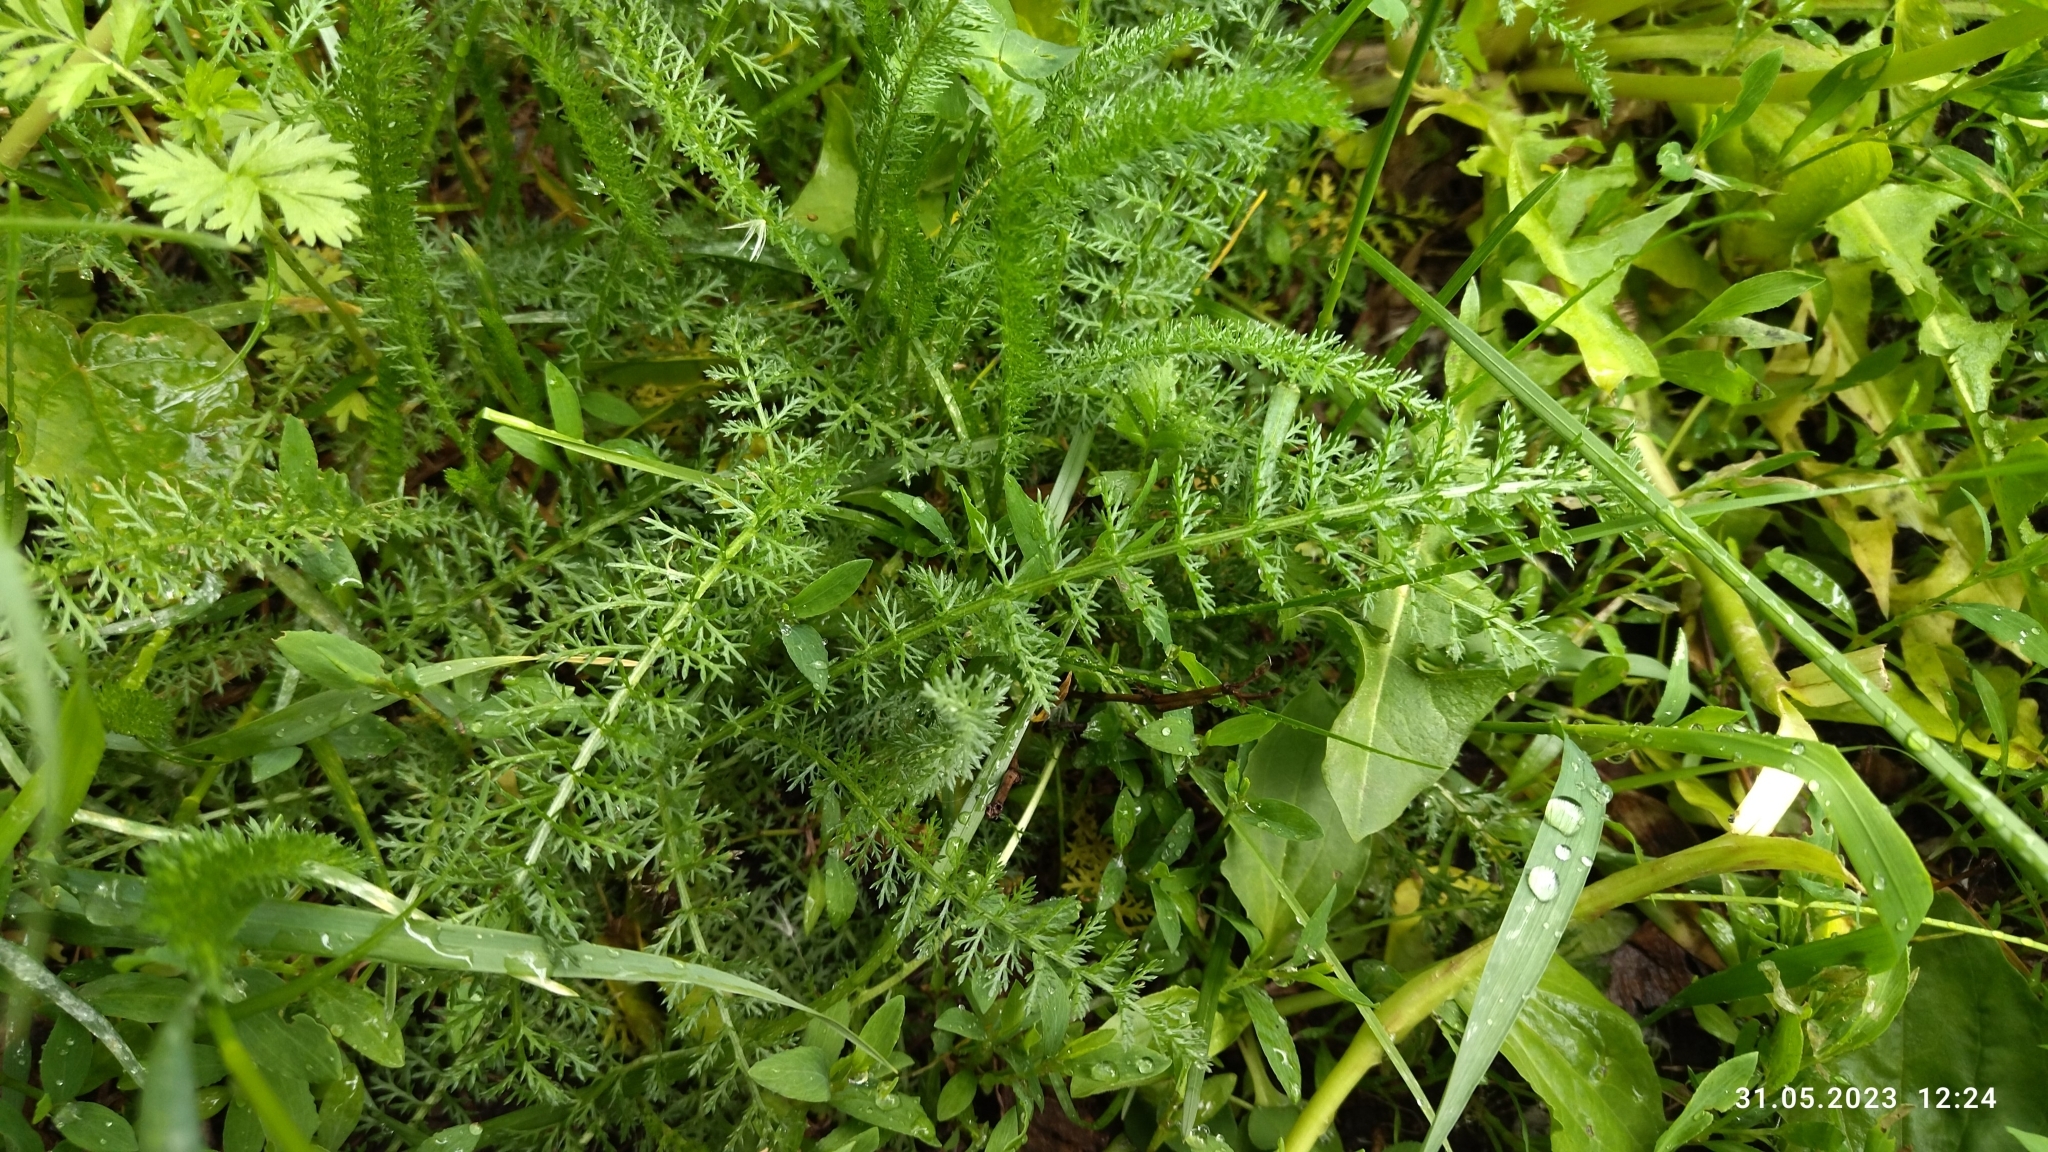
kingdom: Plantae
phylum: Tracheophyta
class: Magnoliopsida
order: Asterales
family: Asteraceae
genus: Achillea
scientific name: Achillea millefolium
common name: Yarrow
